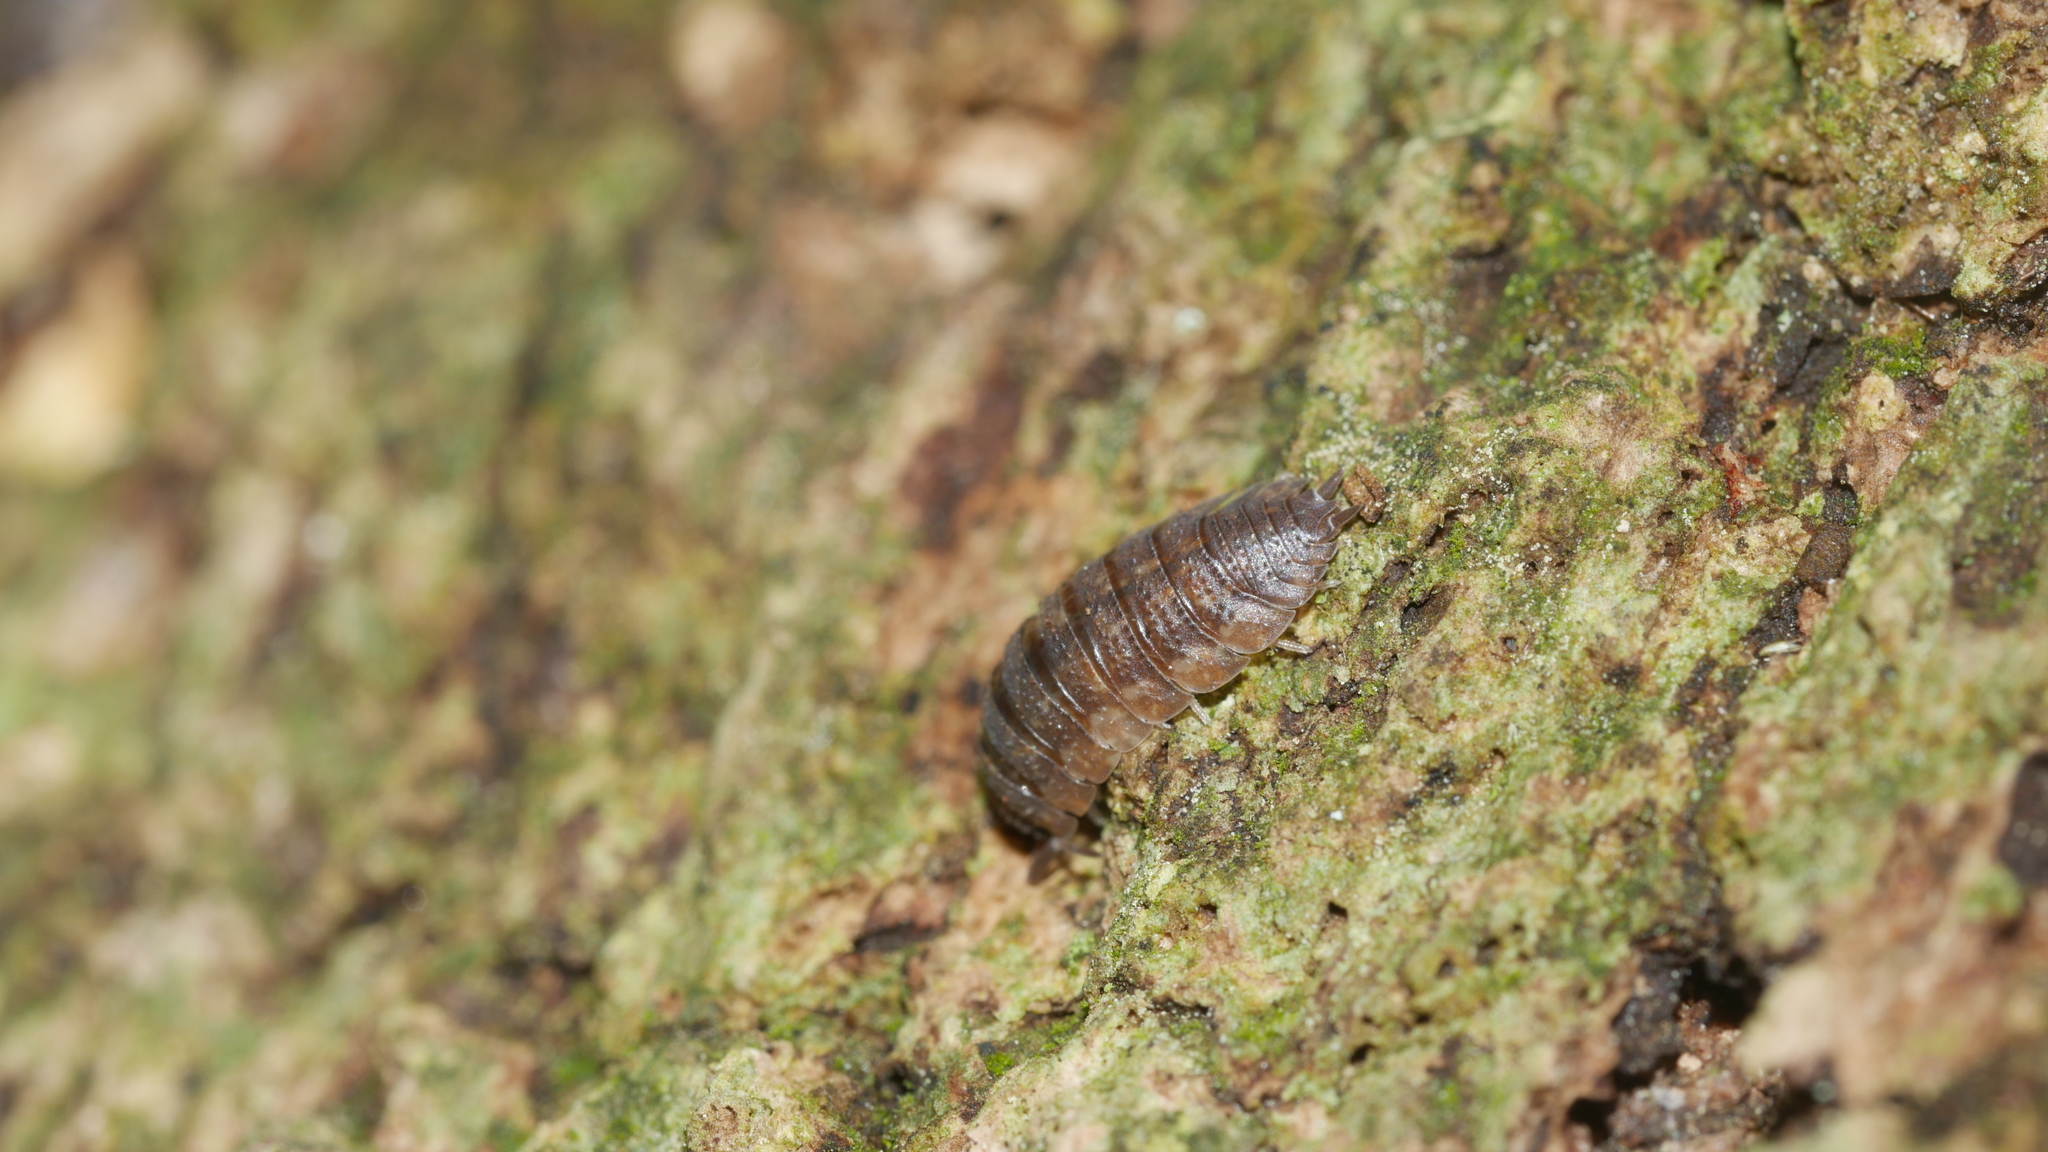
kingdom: Animalia
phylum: Arthropoda
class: Malacostraca
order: Isopoda
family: Porcellionidae
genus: Porcellio
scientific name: Porcellio scaber
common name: Common rough woodlouse
